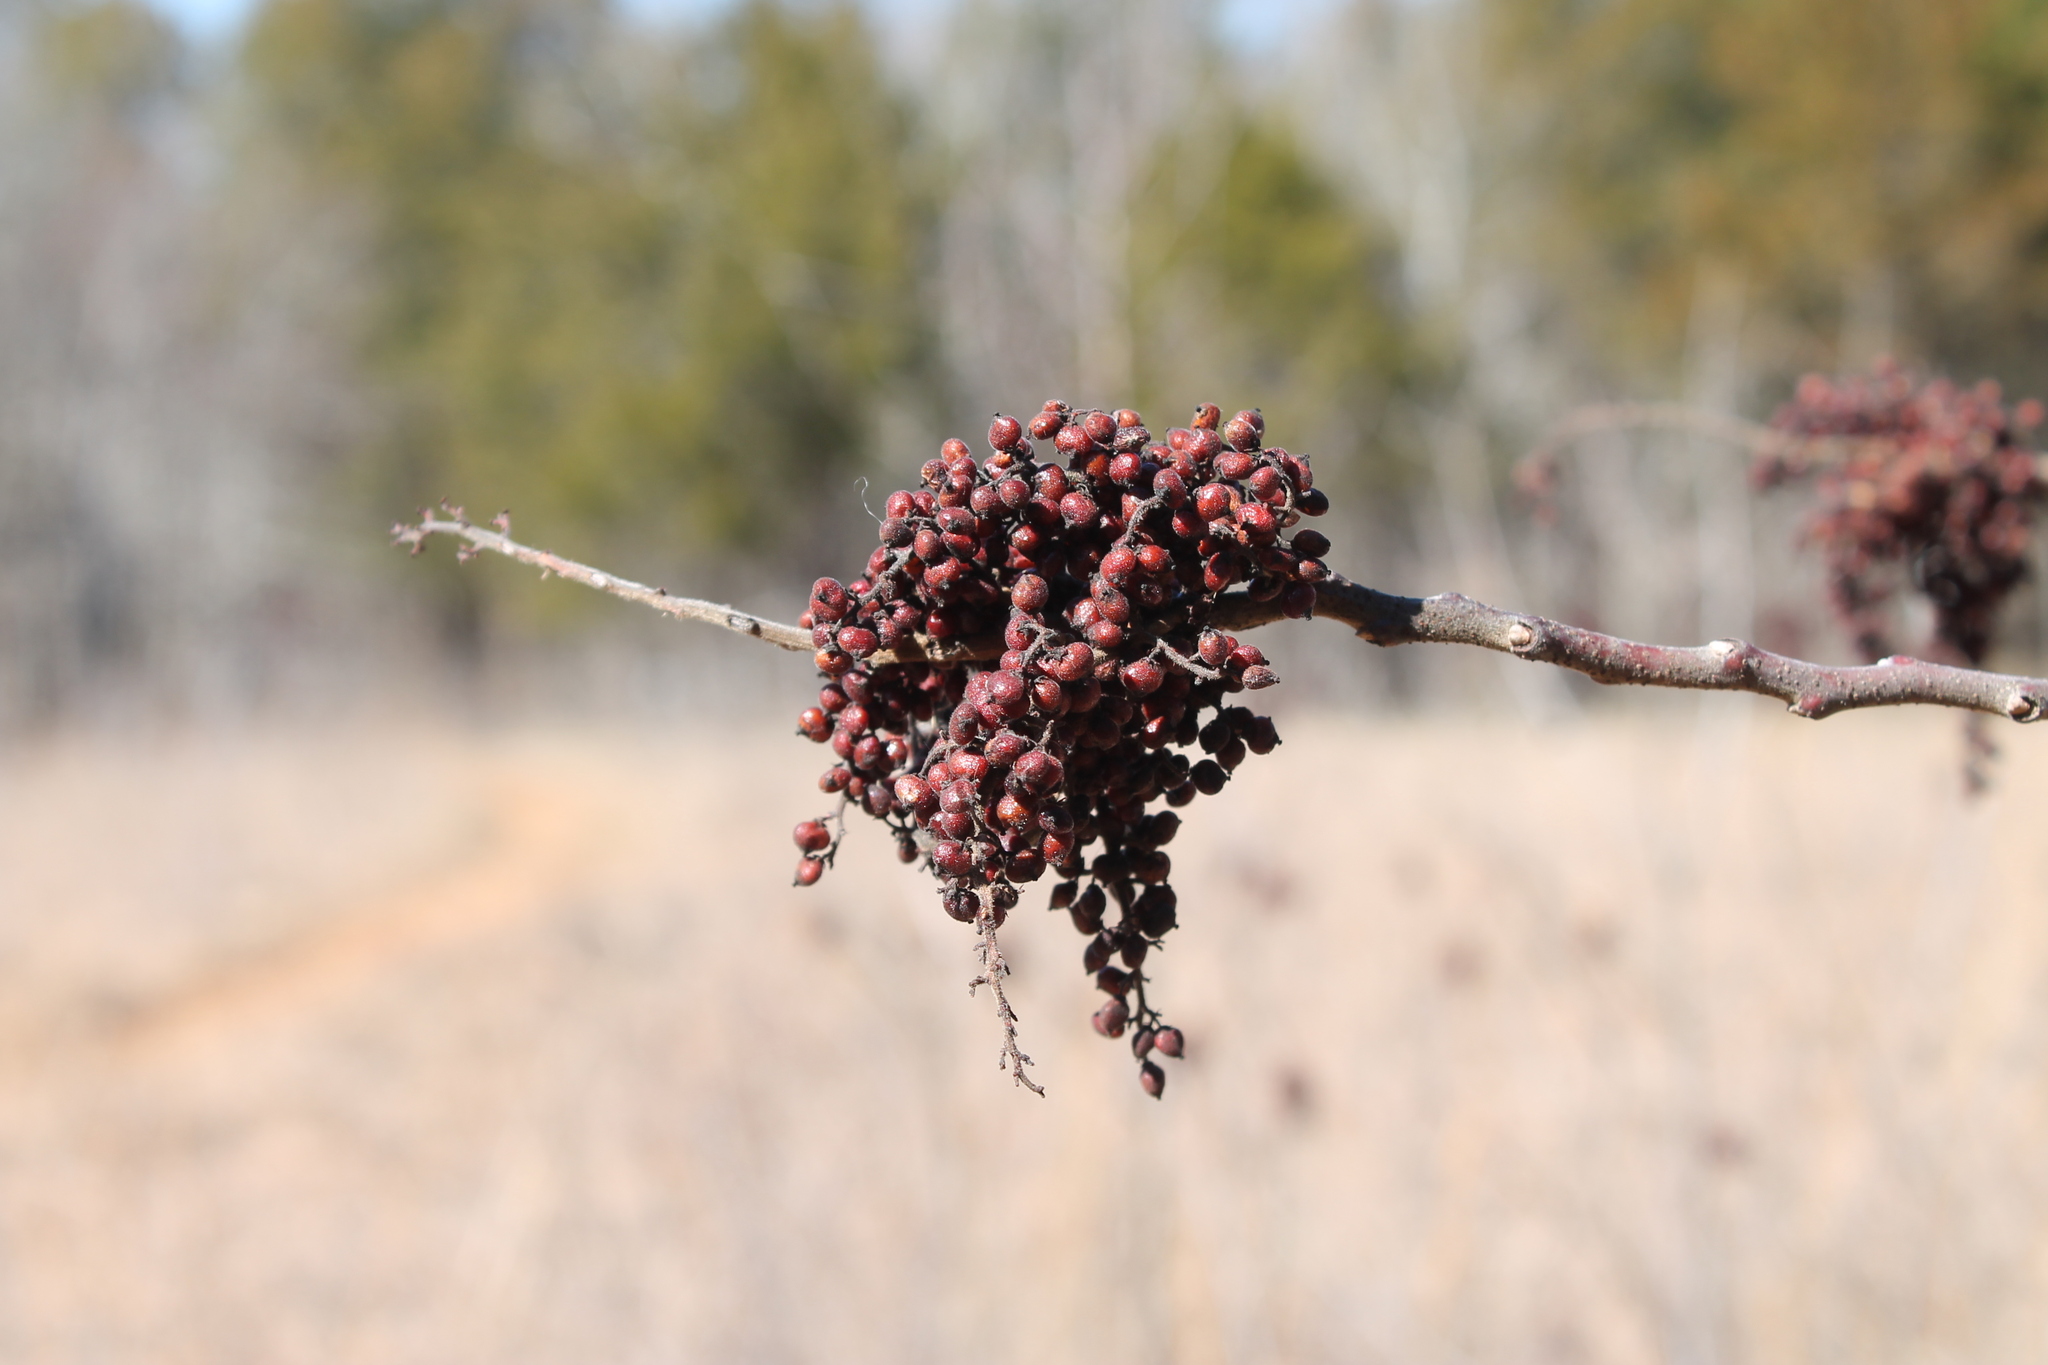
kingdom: Plantae
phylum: Tracheophyta
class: Magnoliopsida
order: Sapindales
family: Anacardiaceae
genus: Rhus
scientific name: Rhus copallina
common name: Shining sumac
